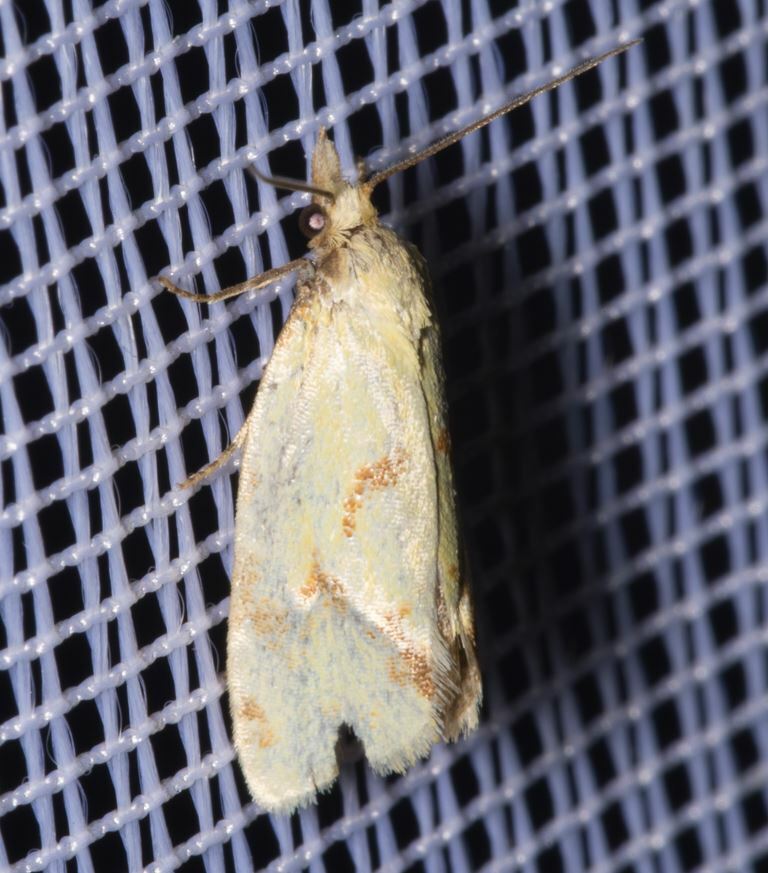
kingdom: Animalia
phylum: Arthropoda
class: Insecta
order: Lepidoptera
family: Tortricidae
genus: Agapeta
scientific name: Agapeta hamana
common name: Common yellow conch
